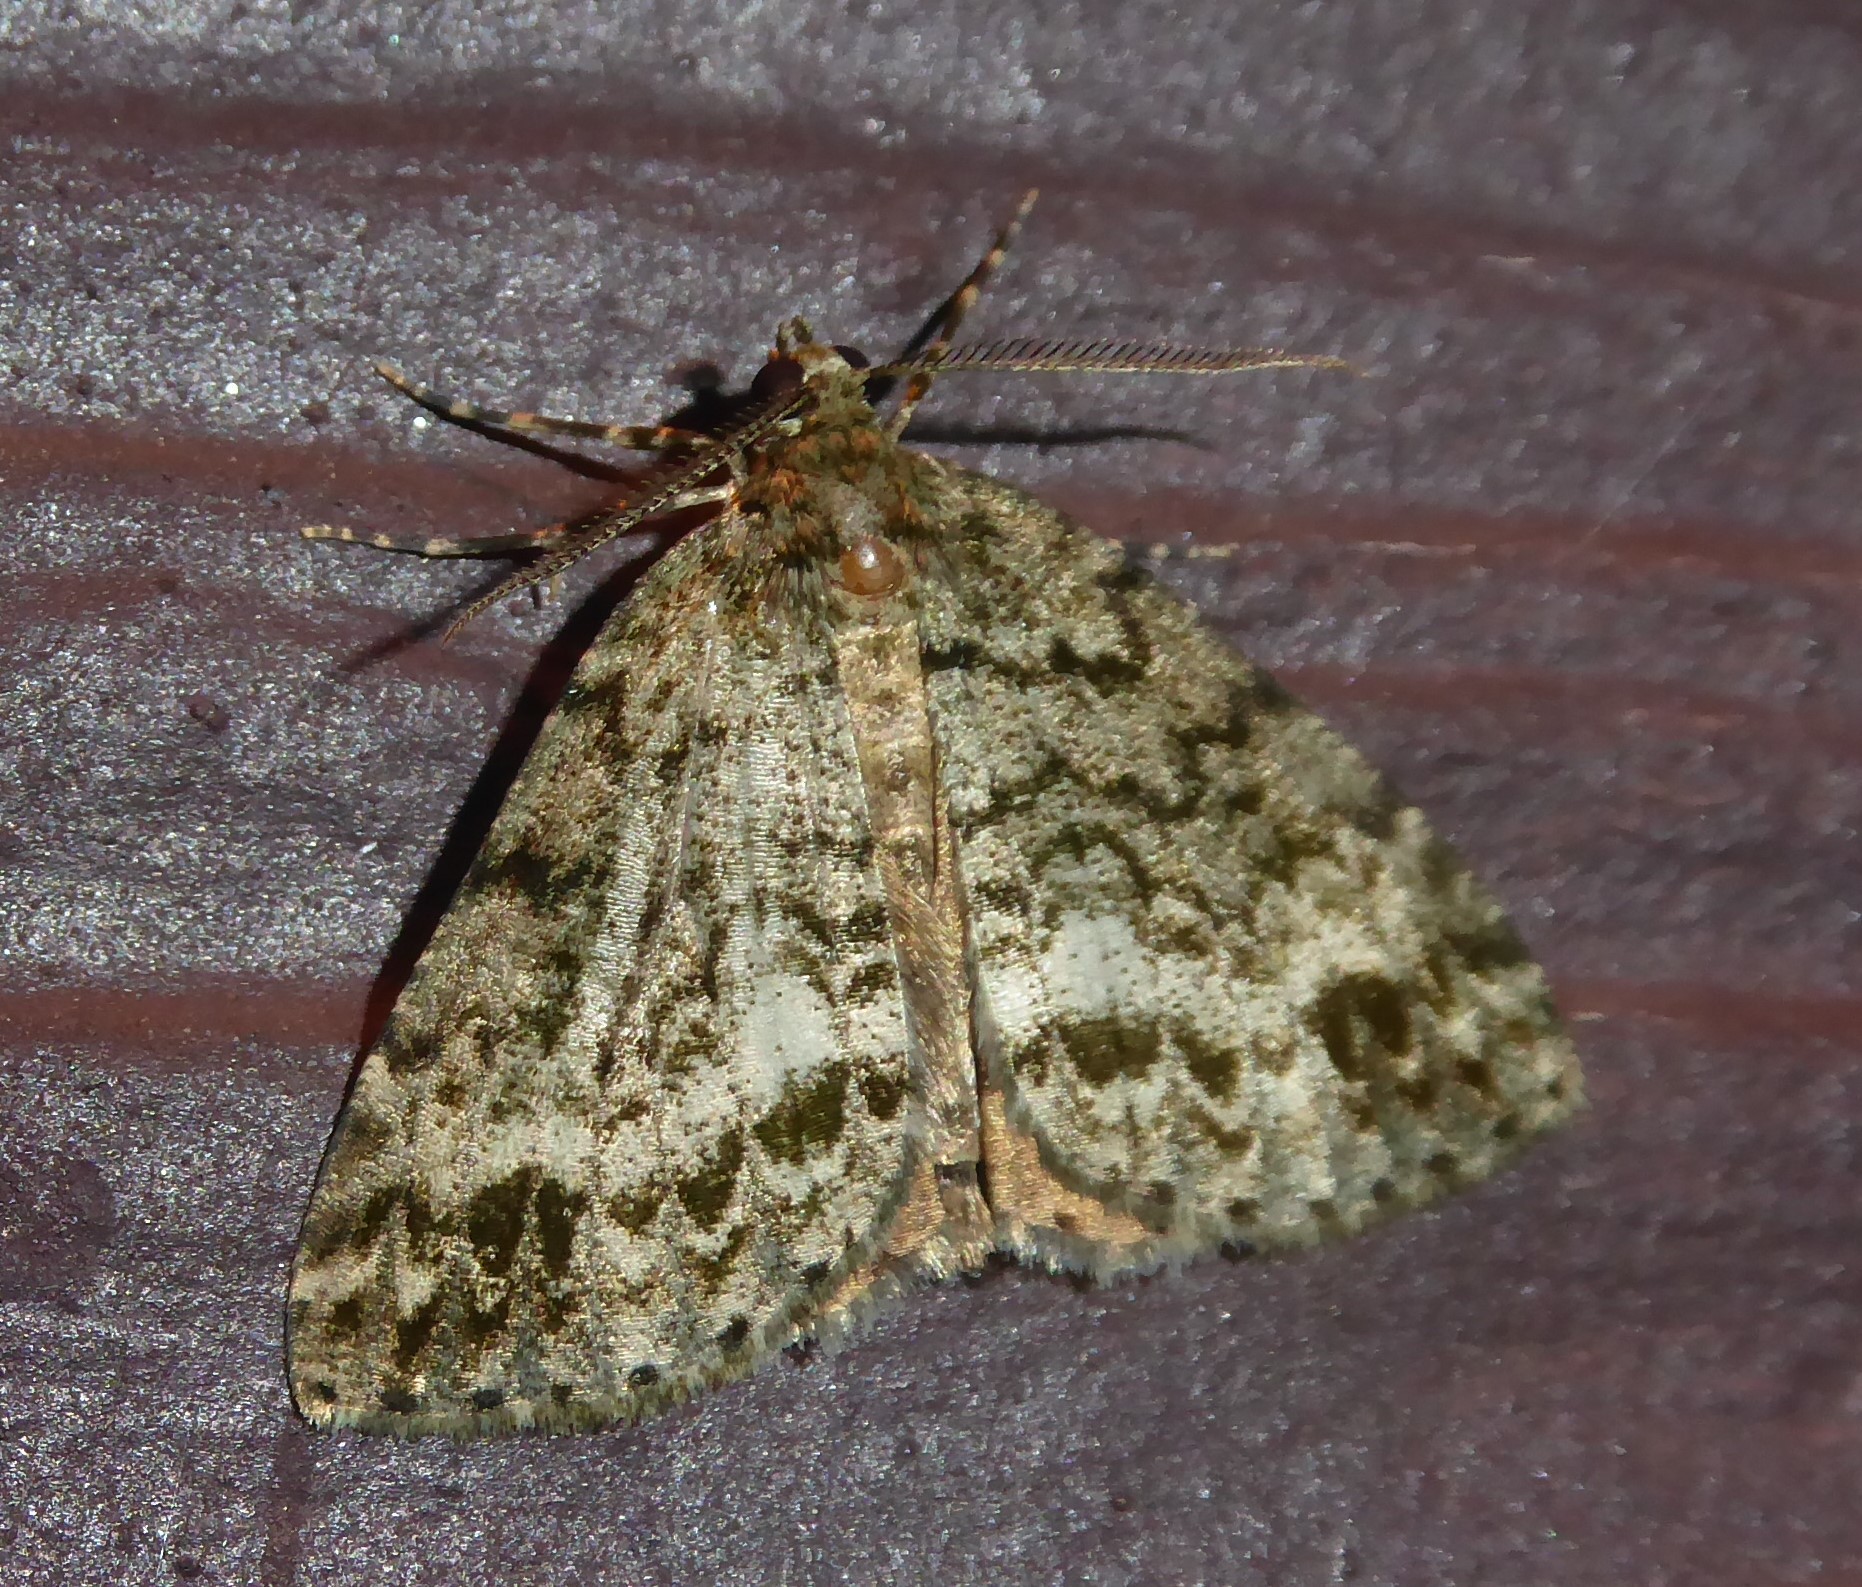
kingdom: Animalia
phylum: Arthropoda
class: Insecta
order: Lepidoptera
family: Geometridae
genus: Pseudocoremia
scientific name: Pseudocoremia indistincta
